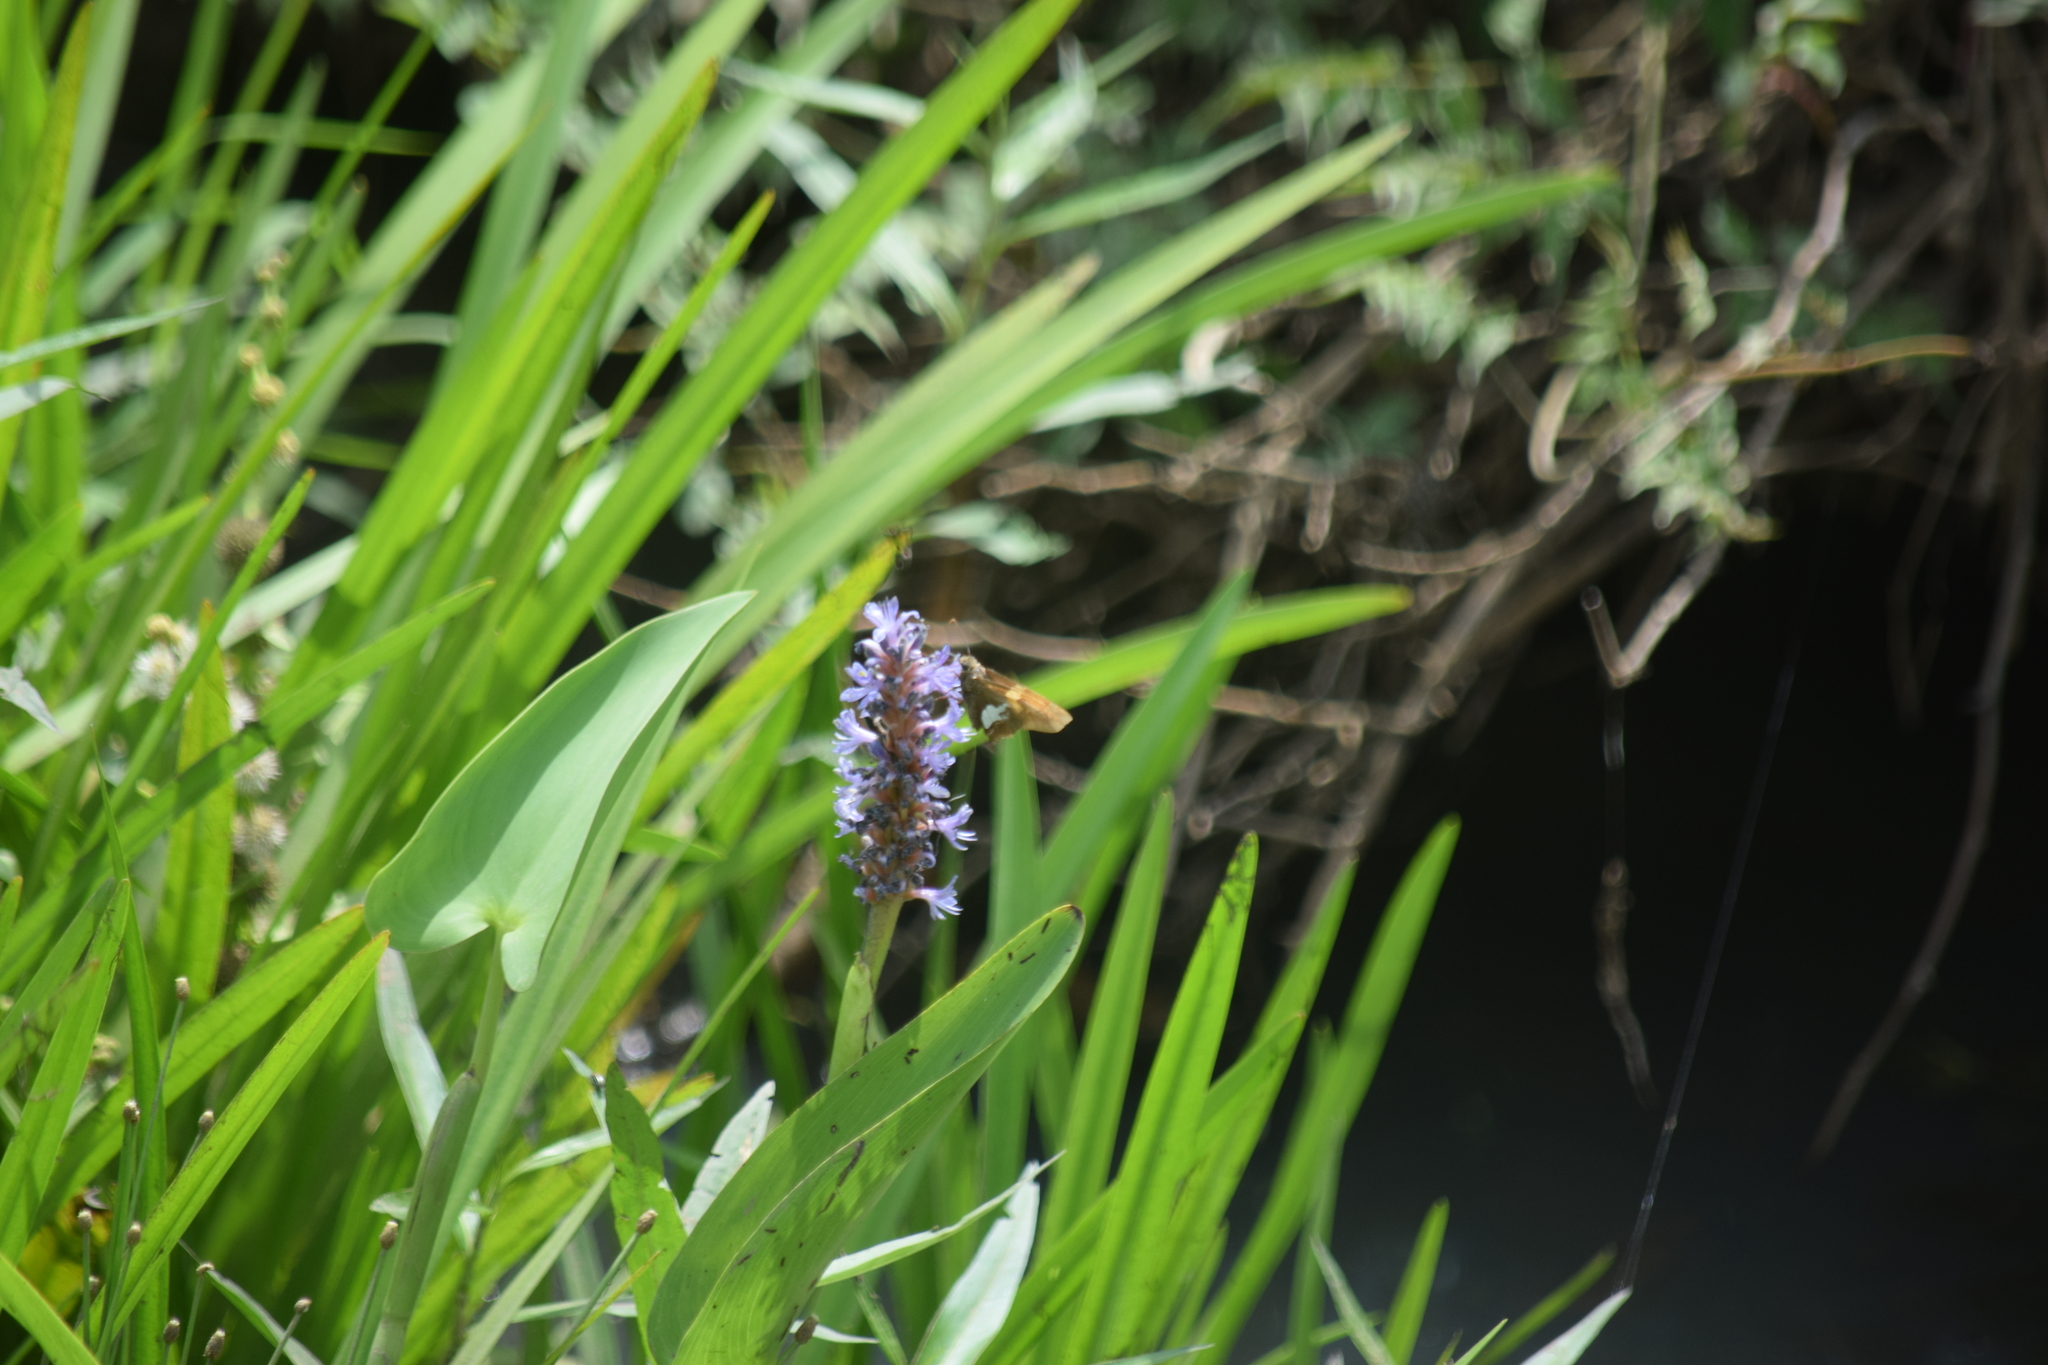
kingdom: Animalia
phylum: Arthropoda
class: Insecta
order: Lepidoptera
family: Hesperiidae
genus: Epargyreus
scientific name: Epargyreus clarus
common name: Silver-spotted skipper
